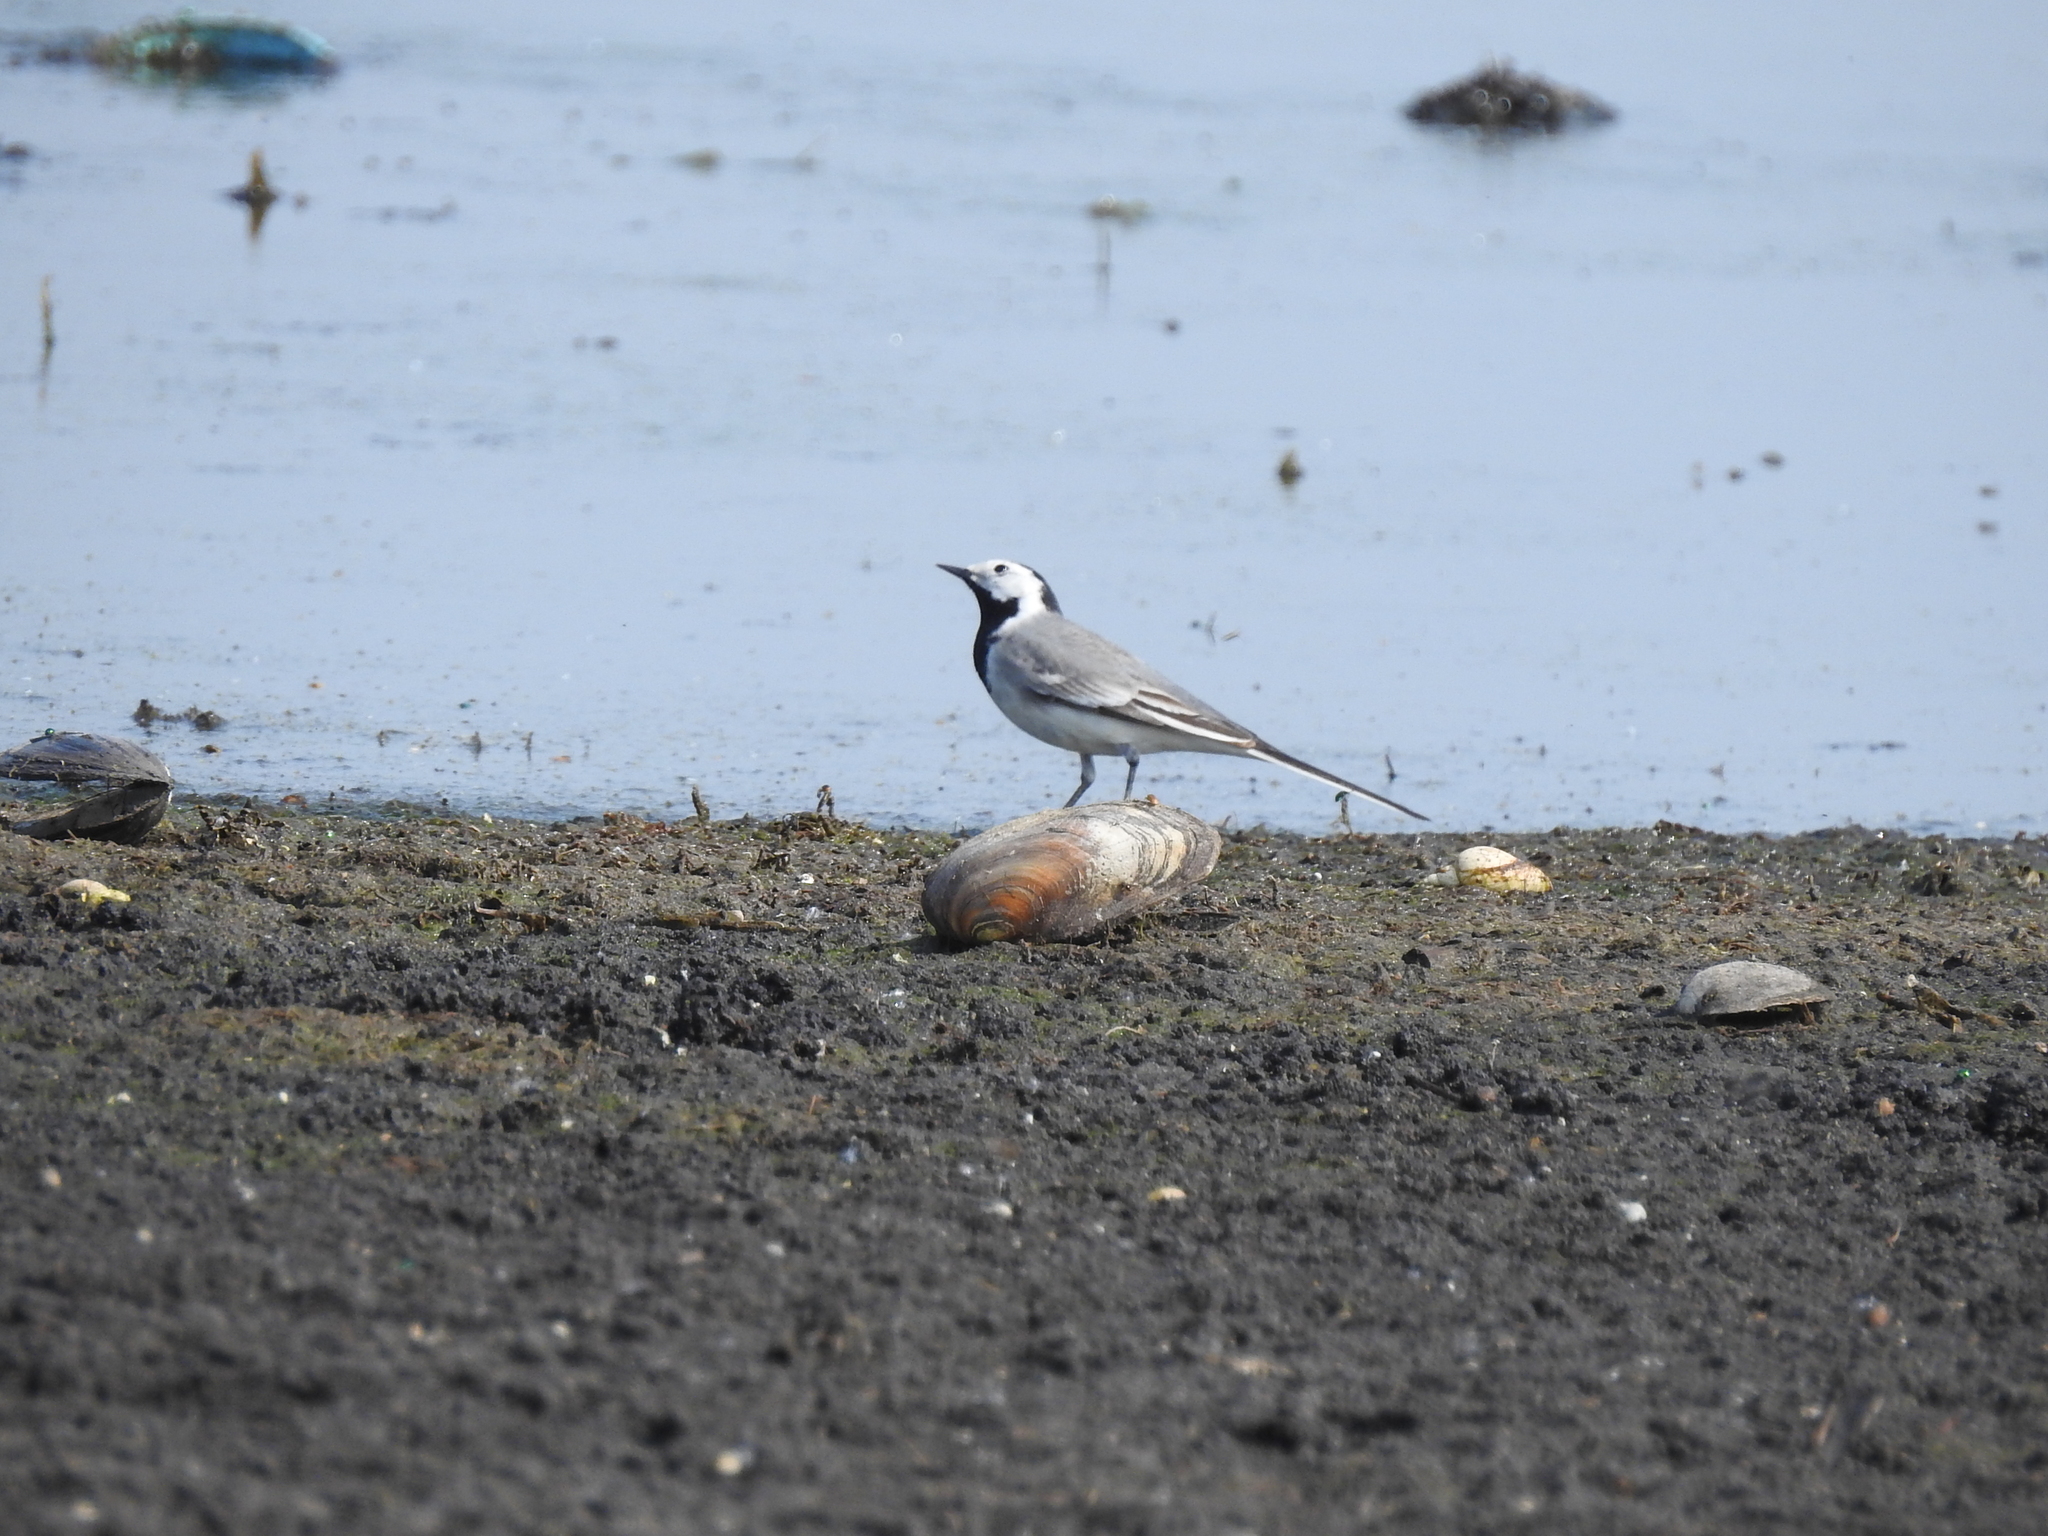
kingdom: Animalia
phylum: Chordata
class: Aves
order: Passeriformes
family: Motacillidae
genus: Motacilla
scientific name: Motacilla alba
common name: White wagtail
